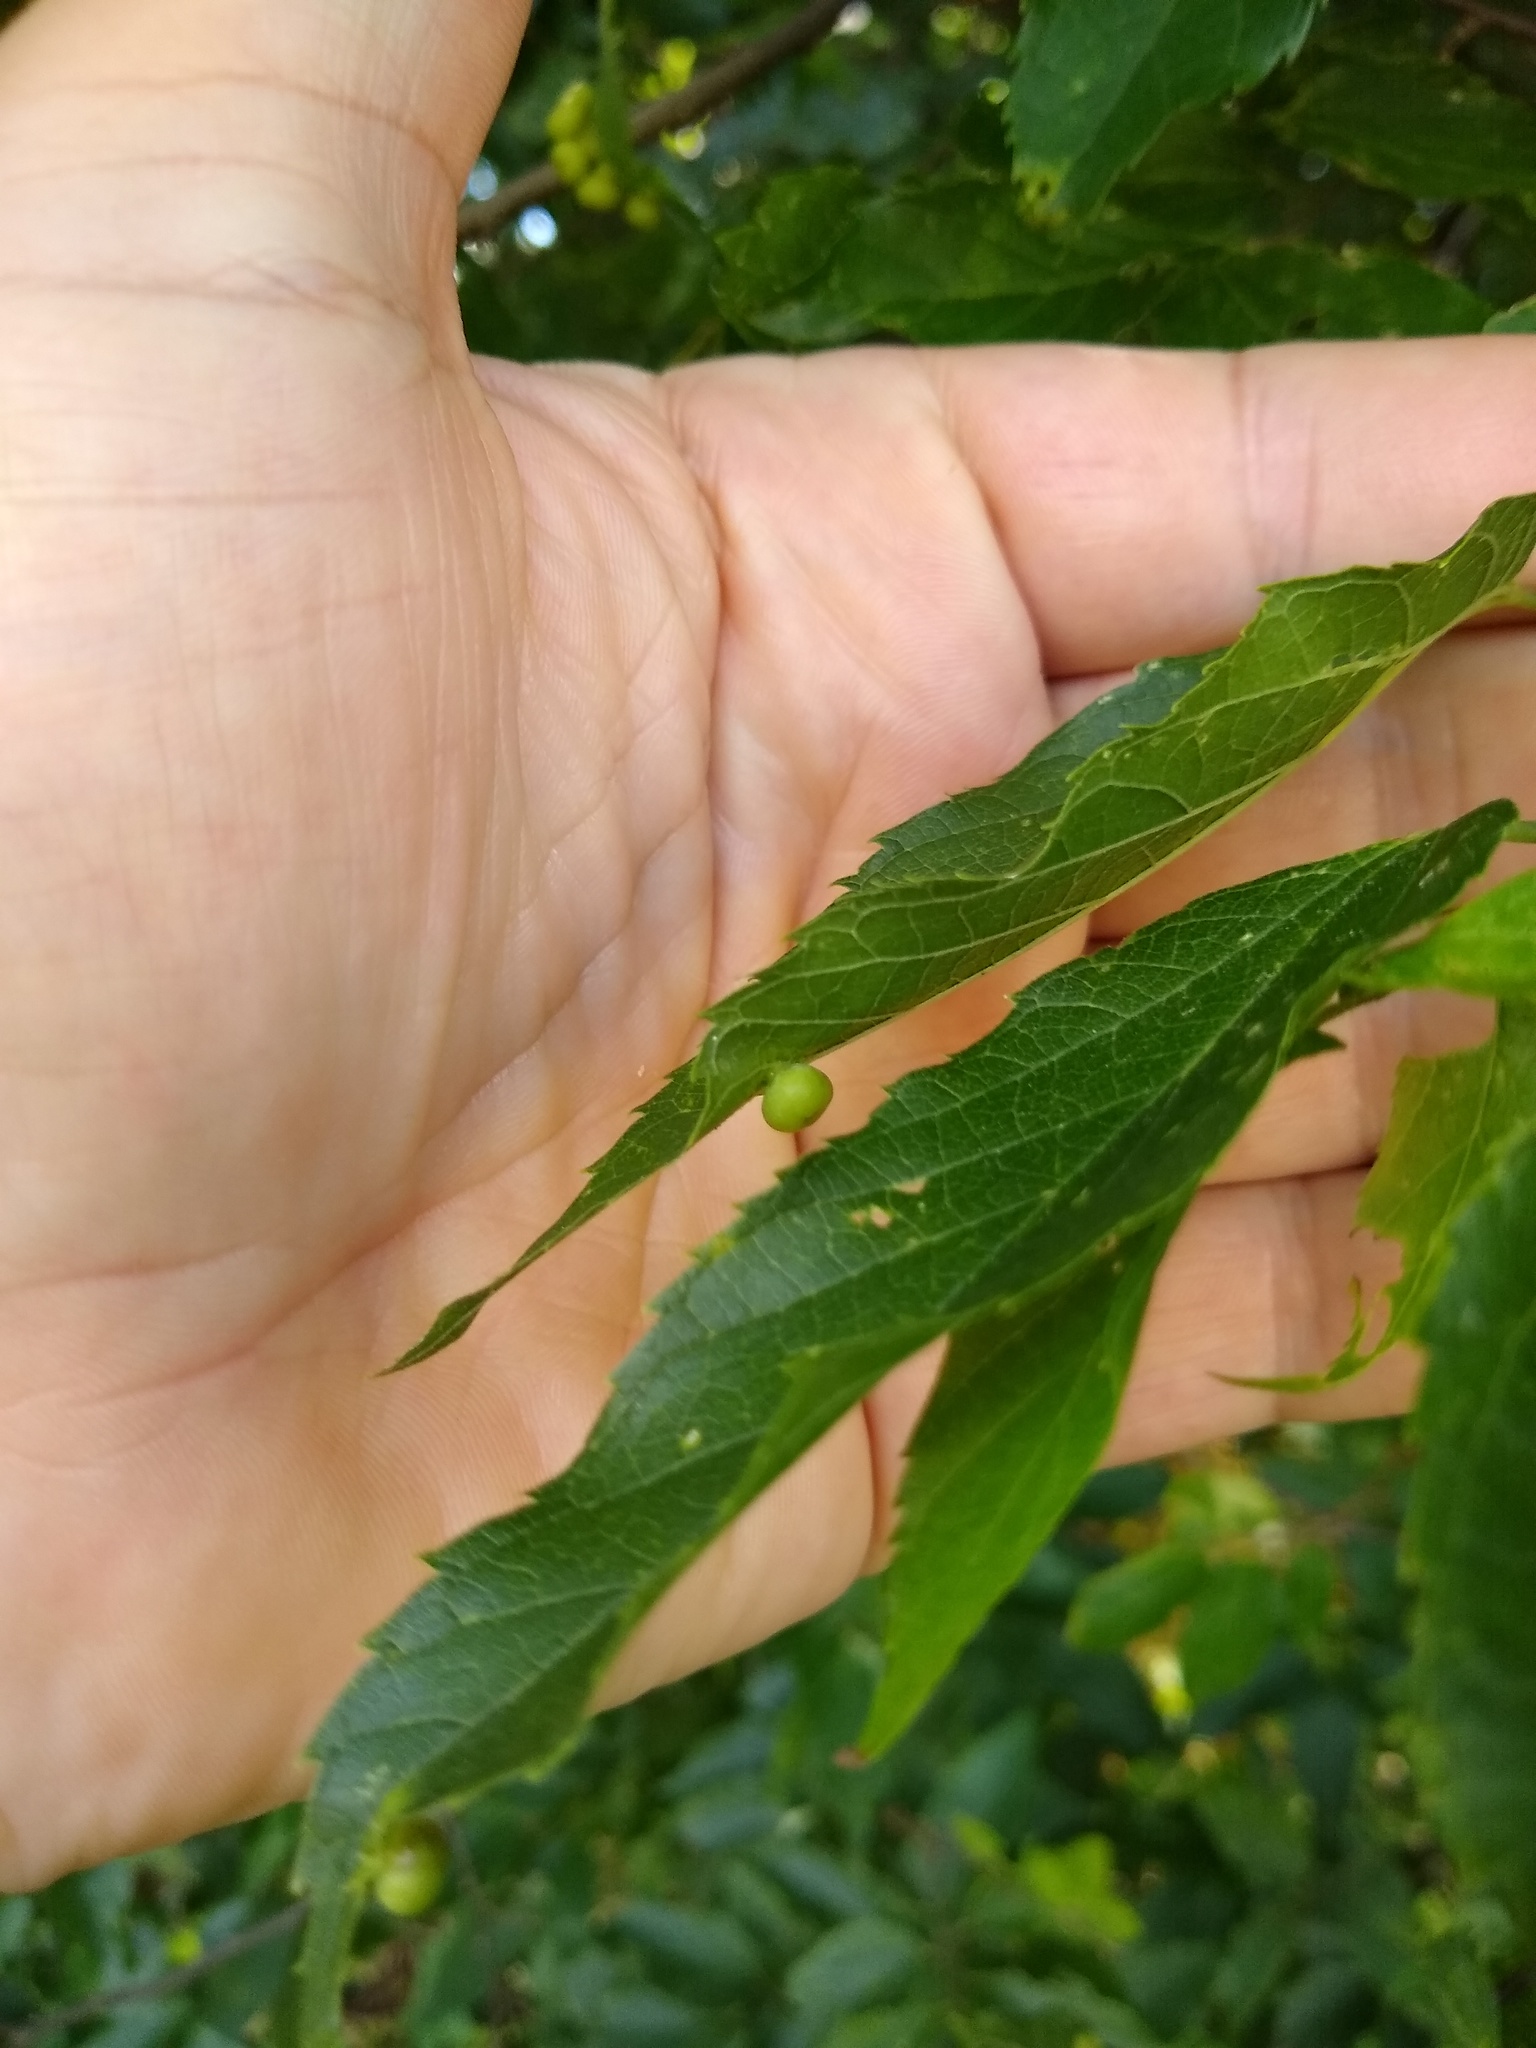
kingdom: Animalia
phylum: Arthropoda
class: Insecta
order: Hemiptera
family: Aphalaridae
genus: Pachypsylla
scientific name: Pachypsylla celtidismamma
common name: Hackberry nipplegall psyllid
